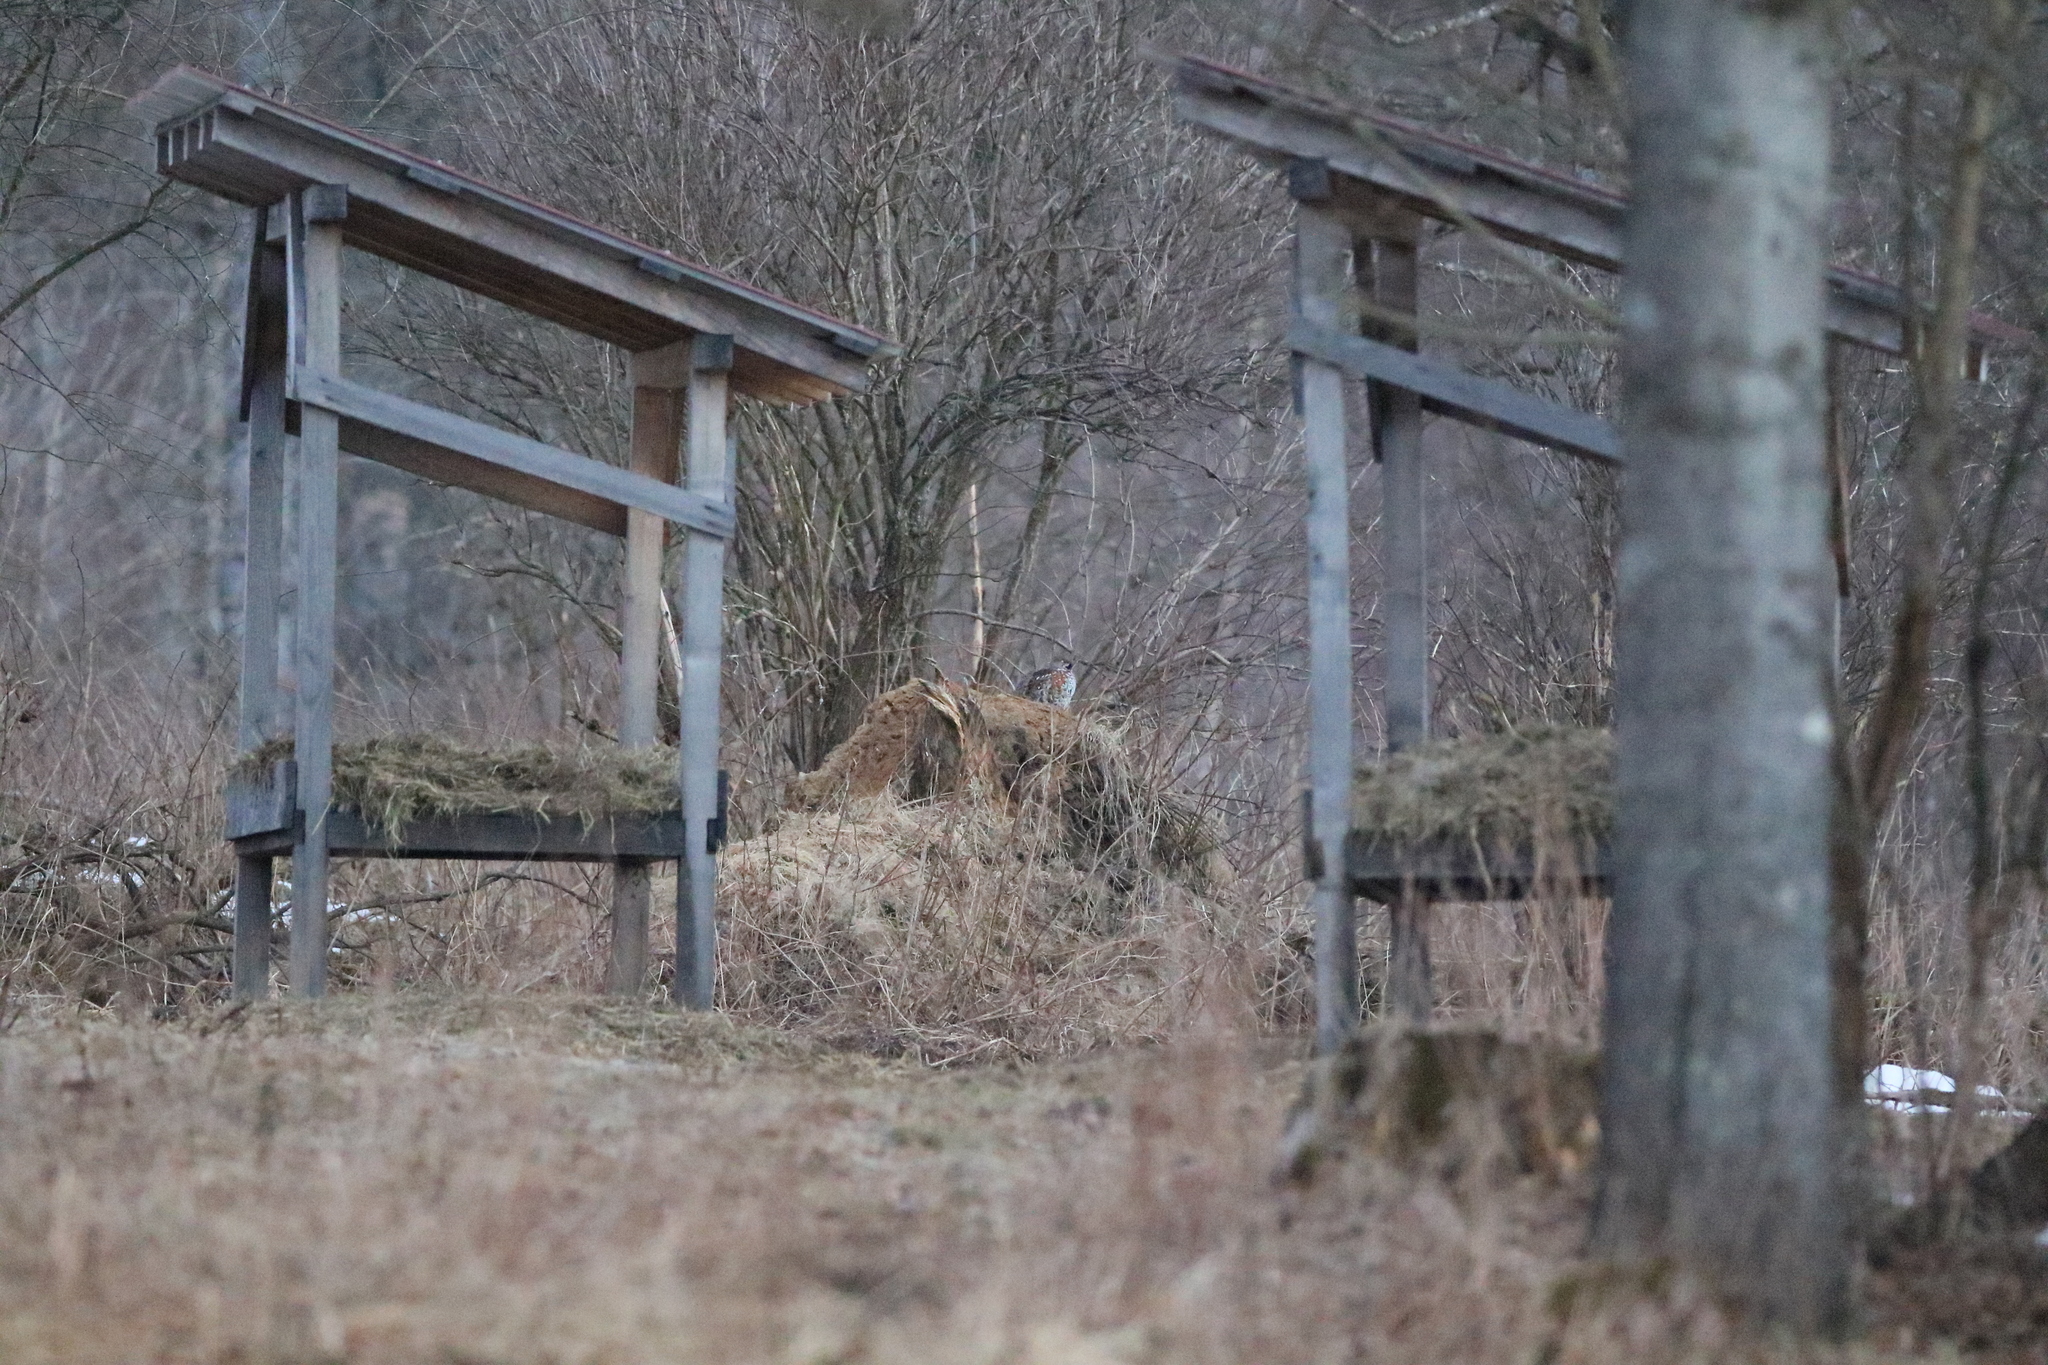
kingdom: Animalia
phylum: Chordata
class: Aves
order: Galliformes
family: Phasianidae
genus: Tetrastes
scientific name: Tetrastes bonasia
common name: Hazel grouse
